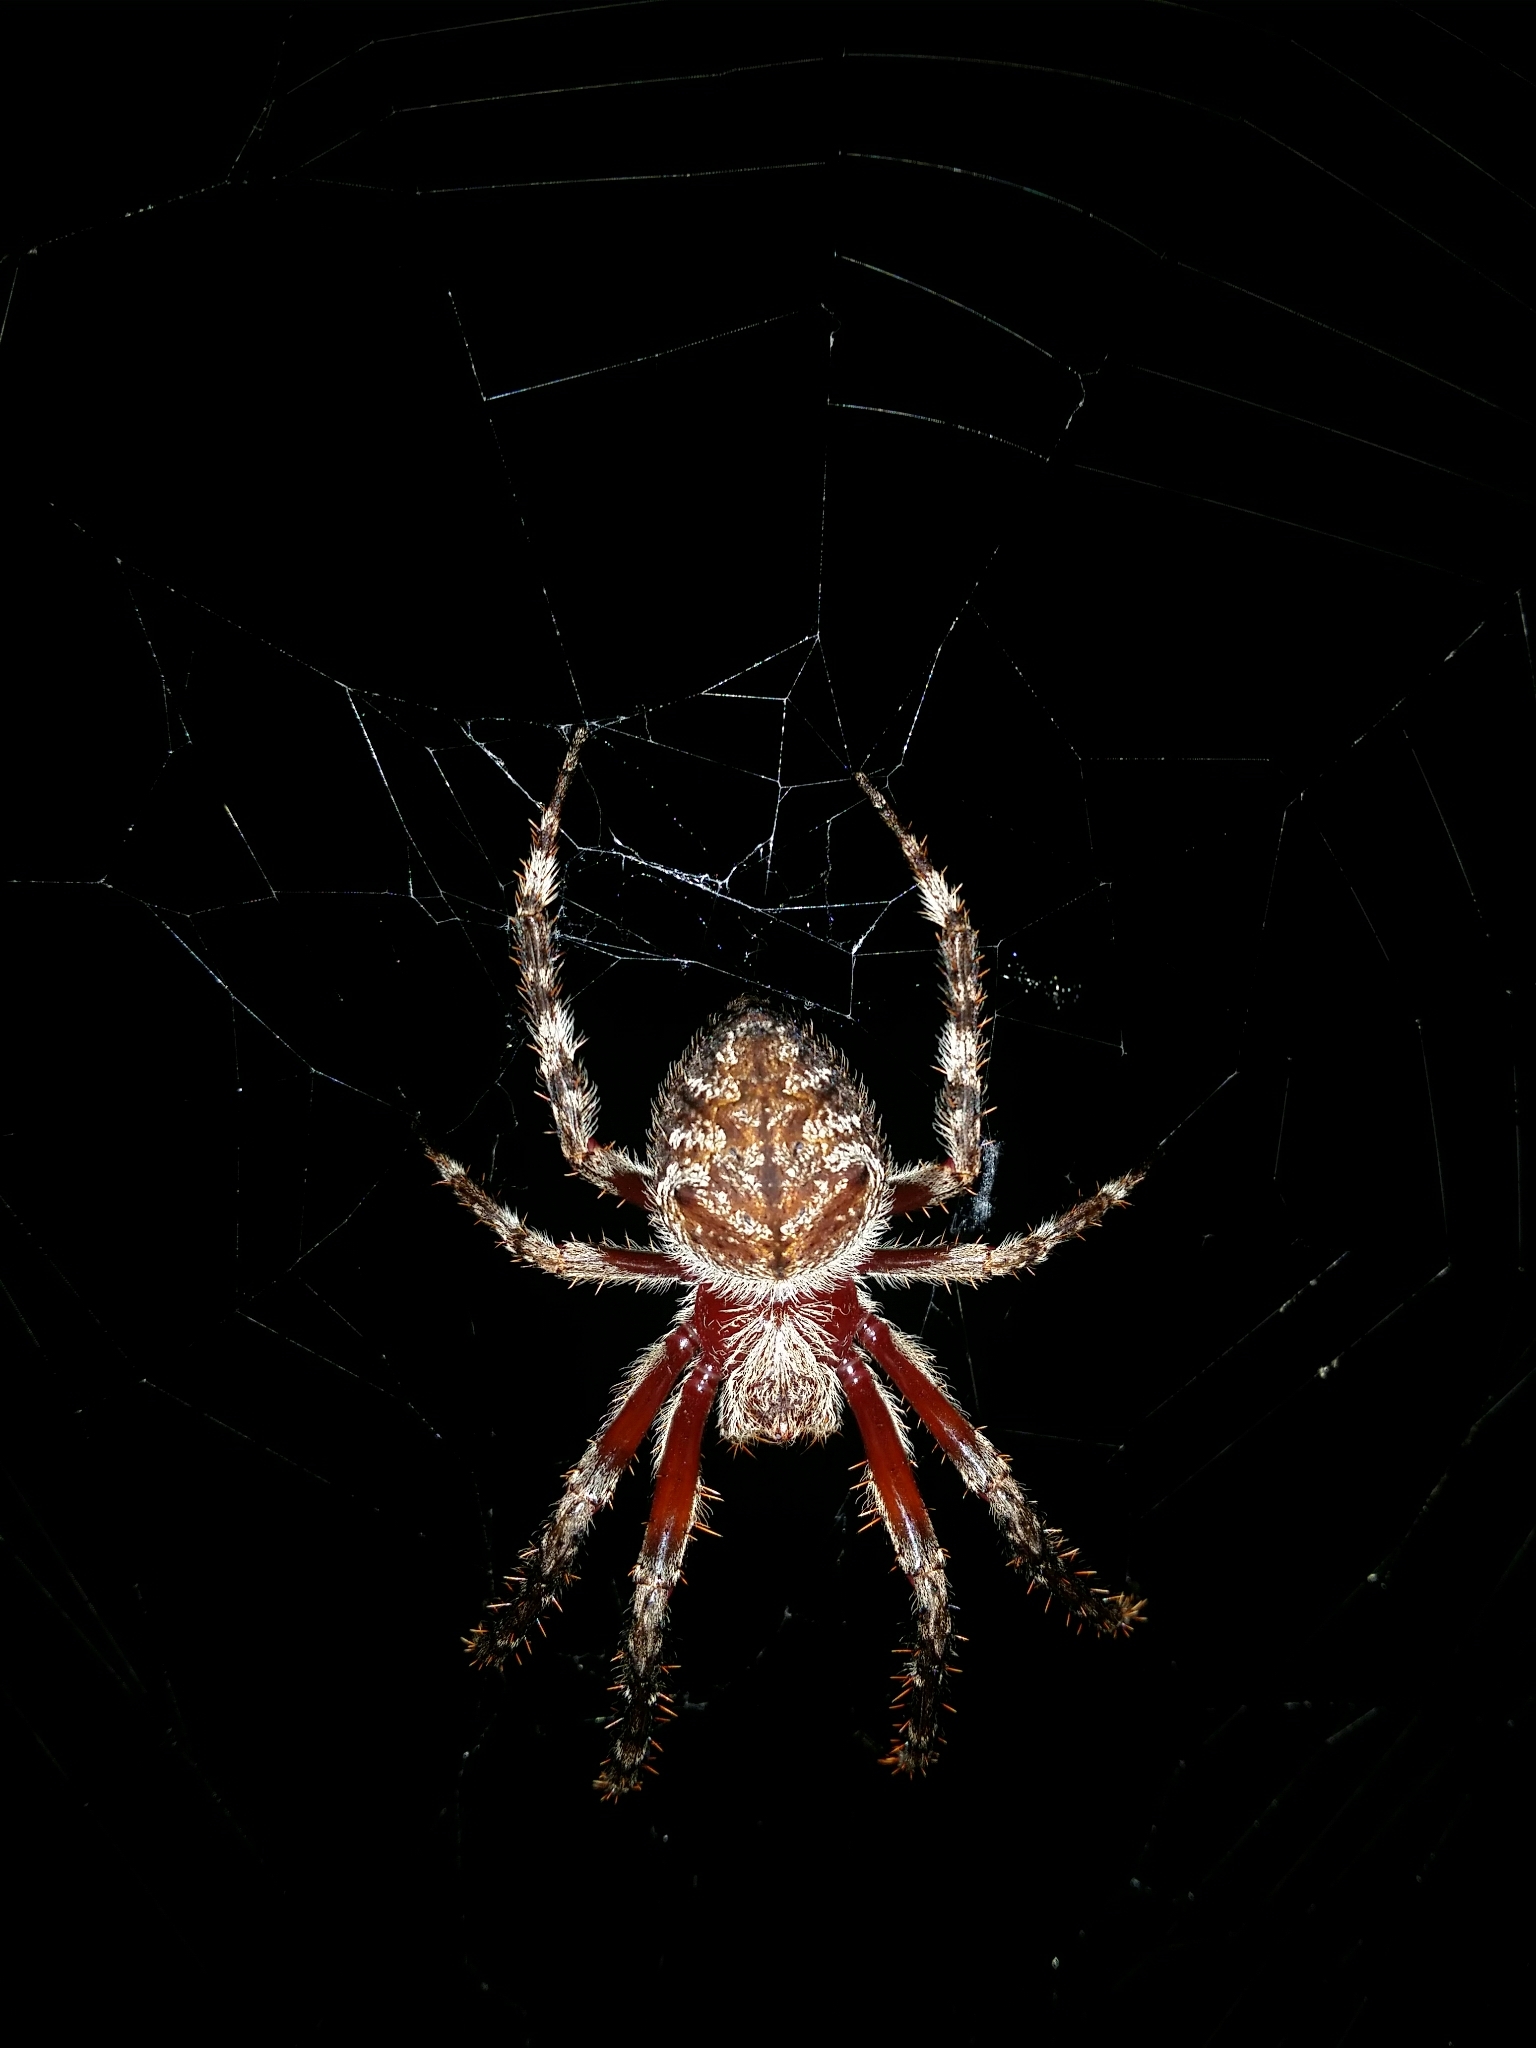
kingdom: Animalia
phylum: Arthropoda
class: Arachnida
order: Araneae
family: Araneidae
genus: Hortophora
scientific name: Hortophora biapicata
